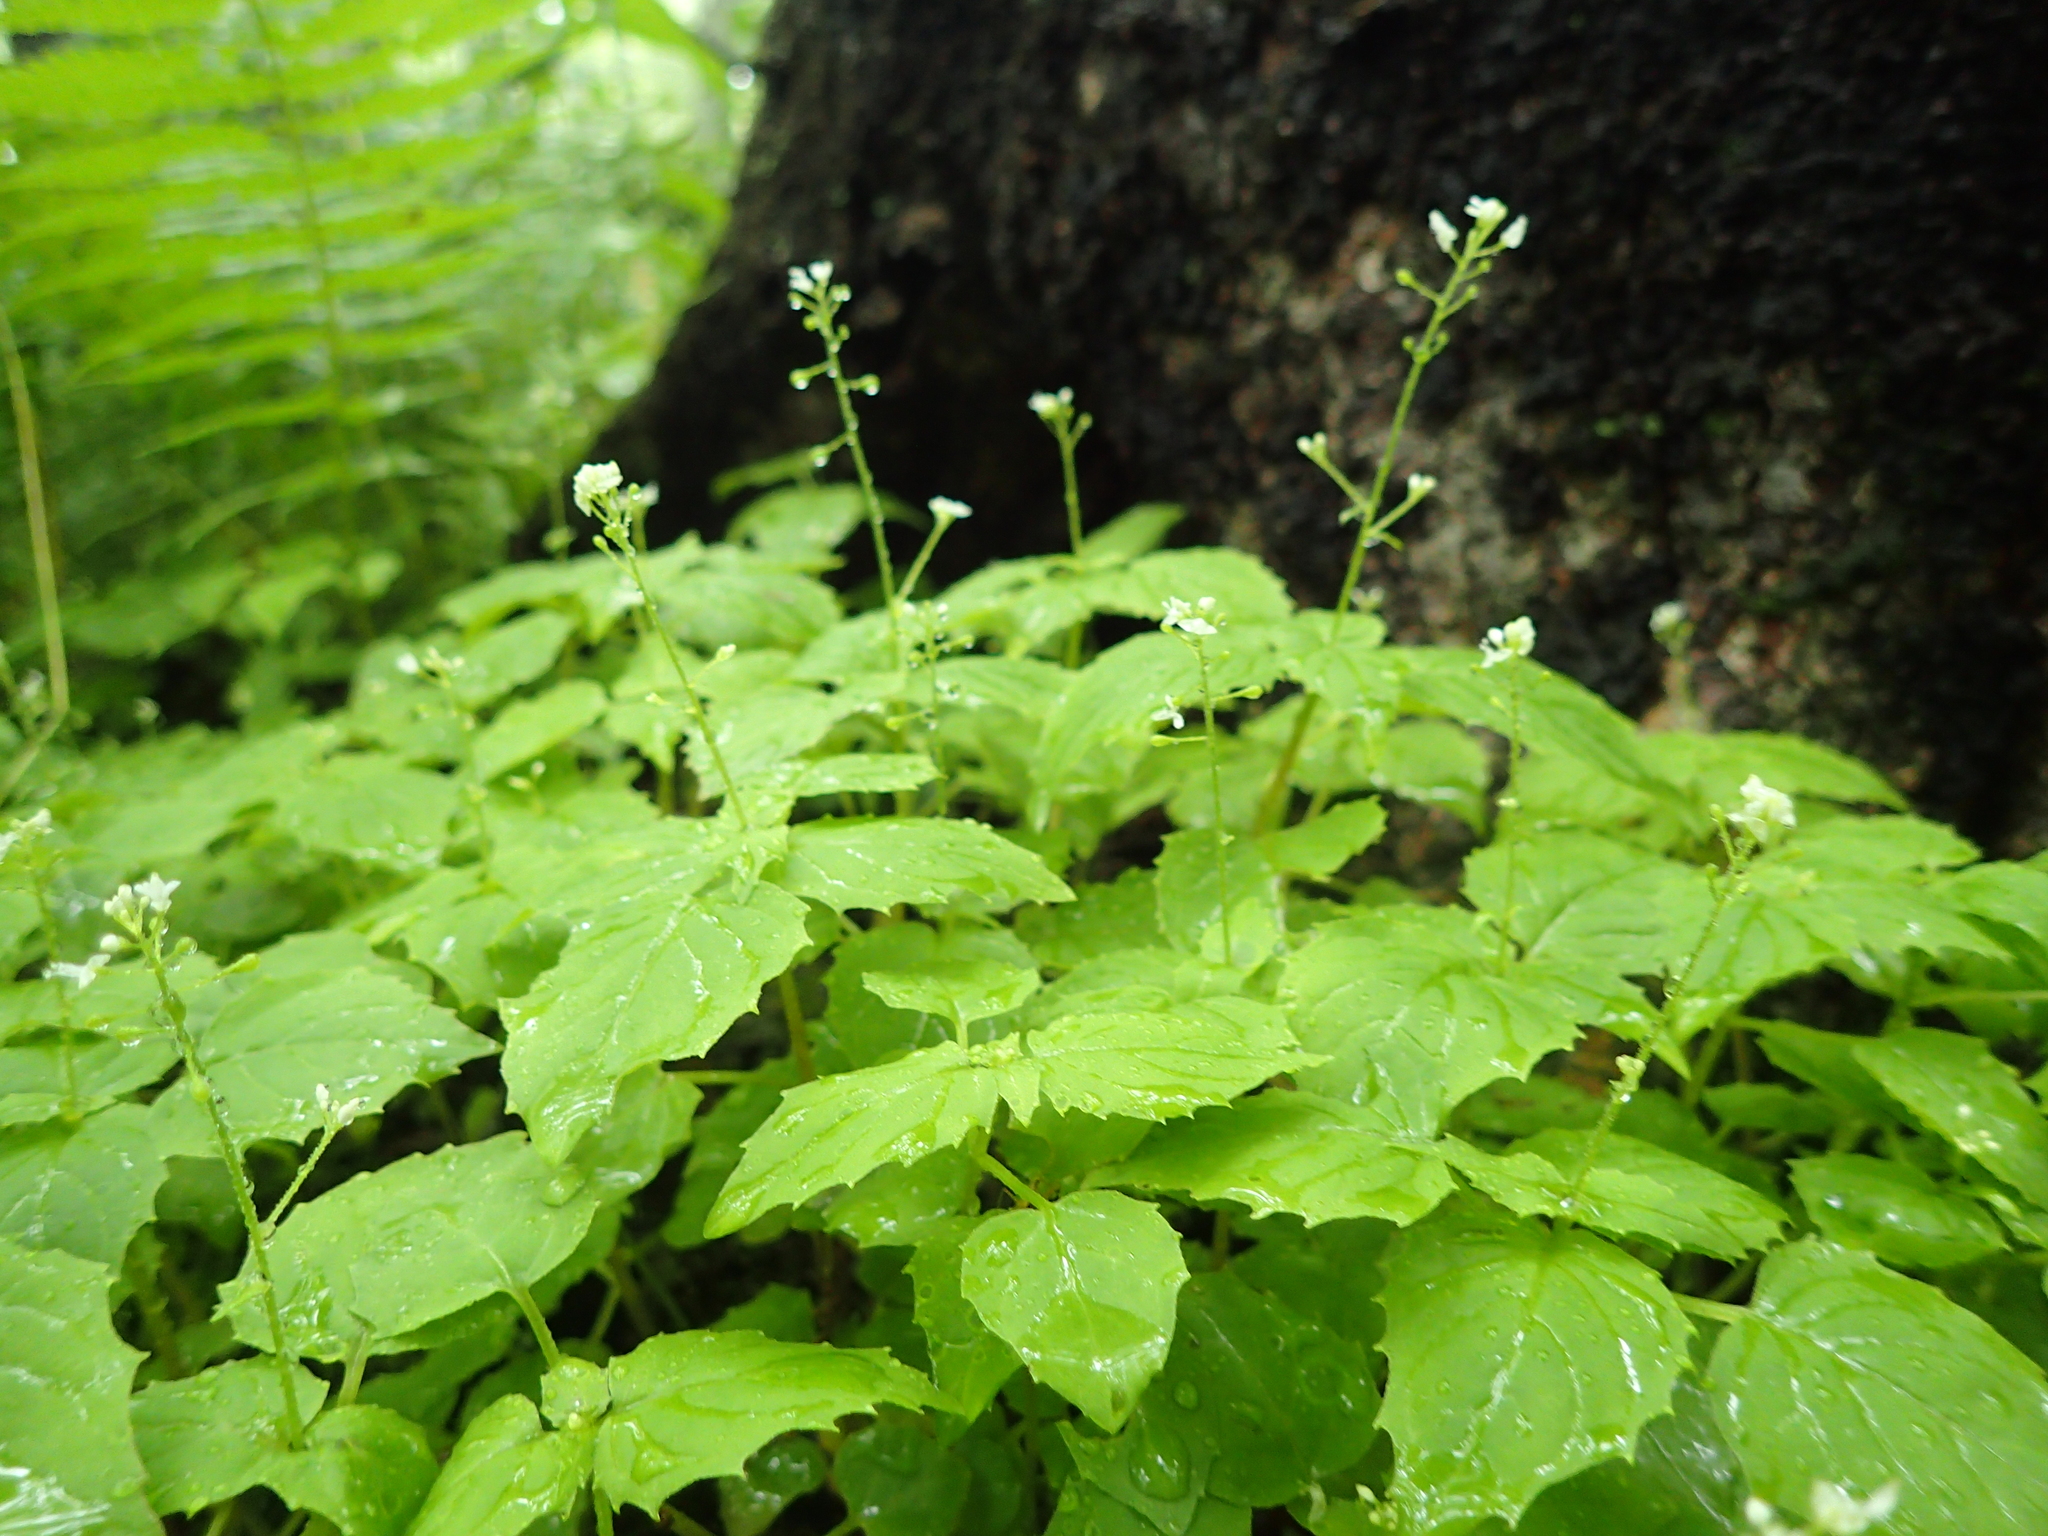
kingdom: Plantae
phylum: Tracheophyta
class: Magnoliopsida
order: Myrtales
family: Onagraceae
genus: Circaea
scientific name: Circaea alpina
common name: Alpine enchanter's-nightshade
